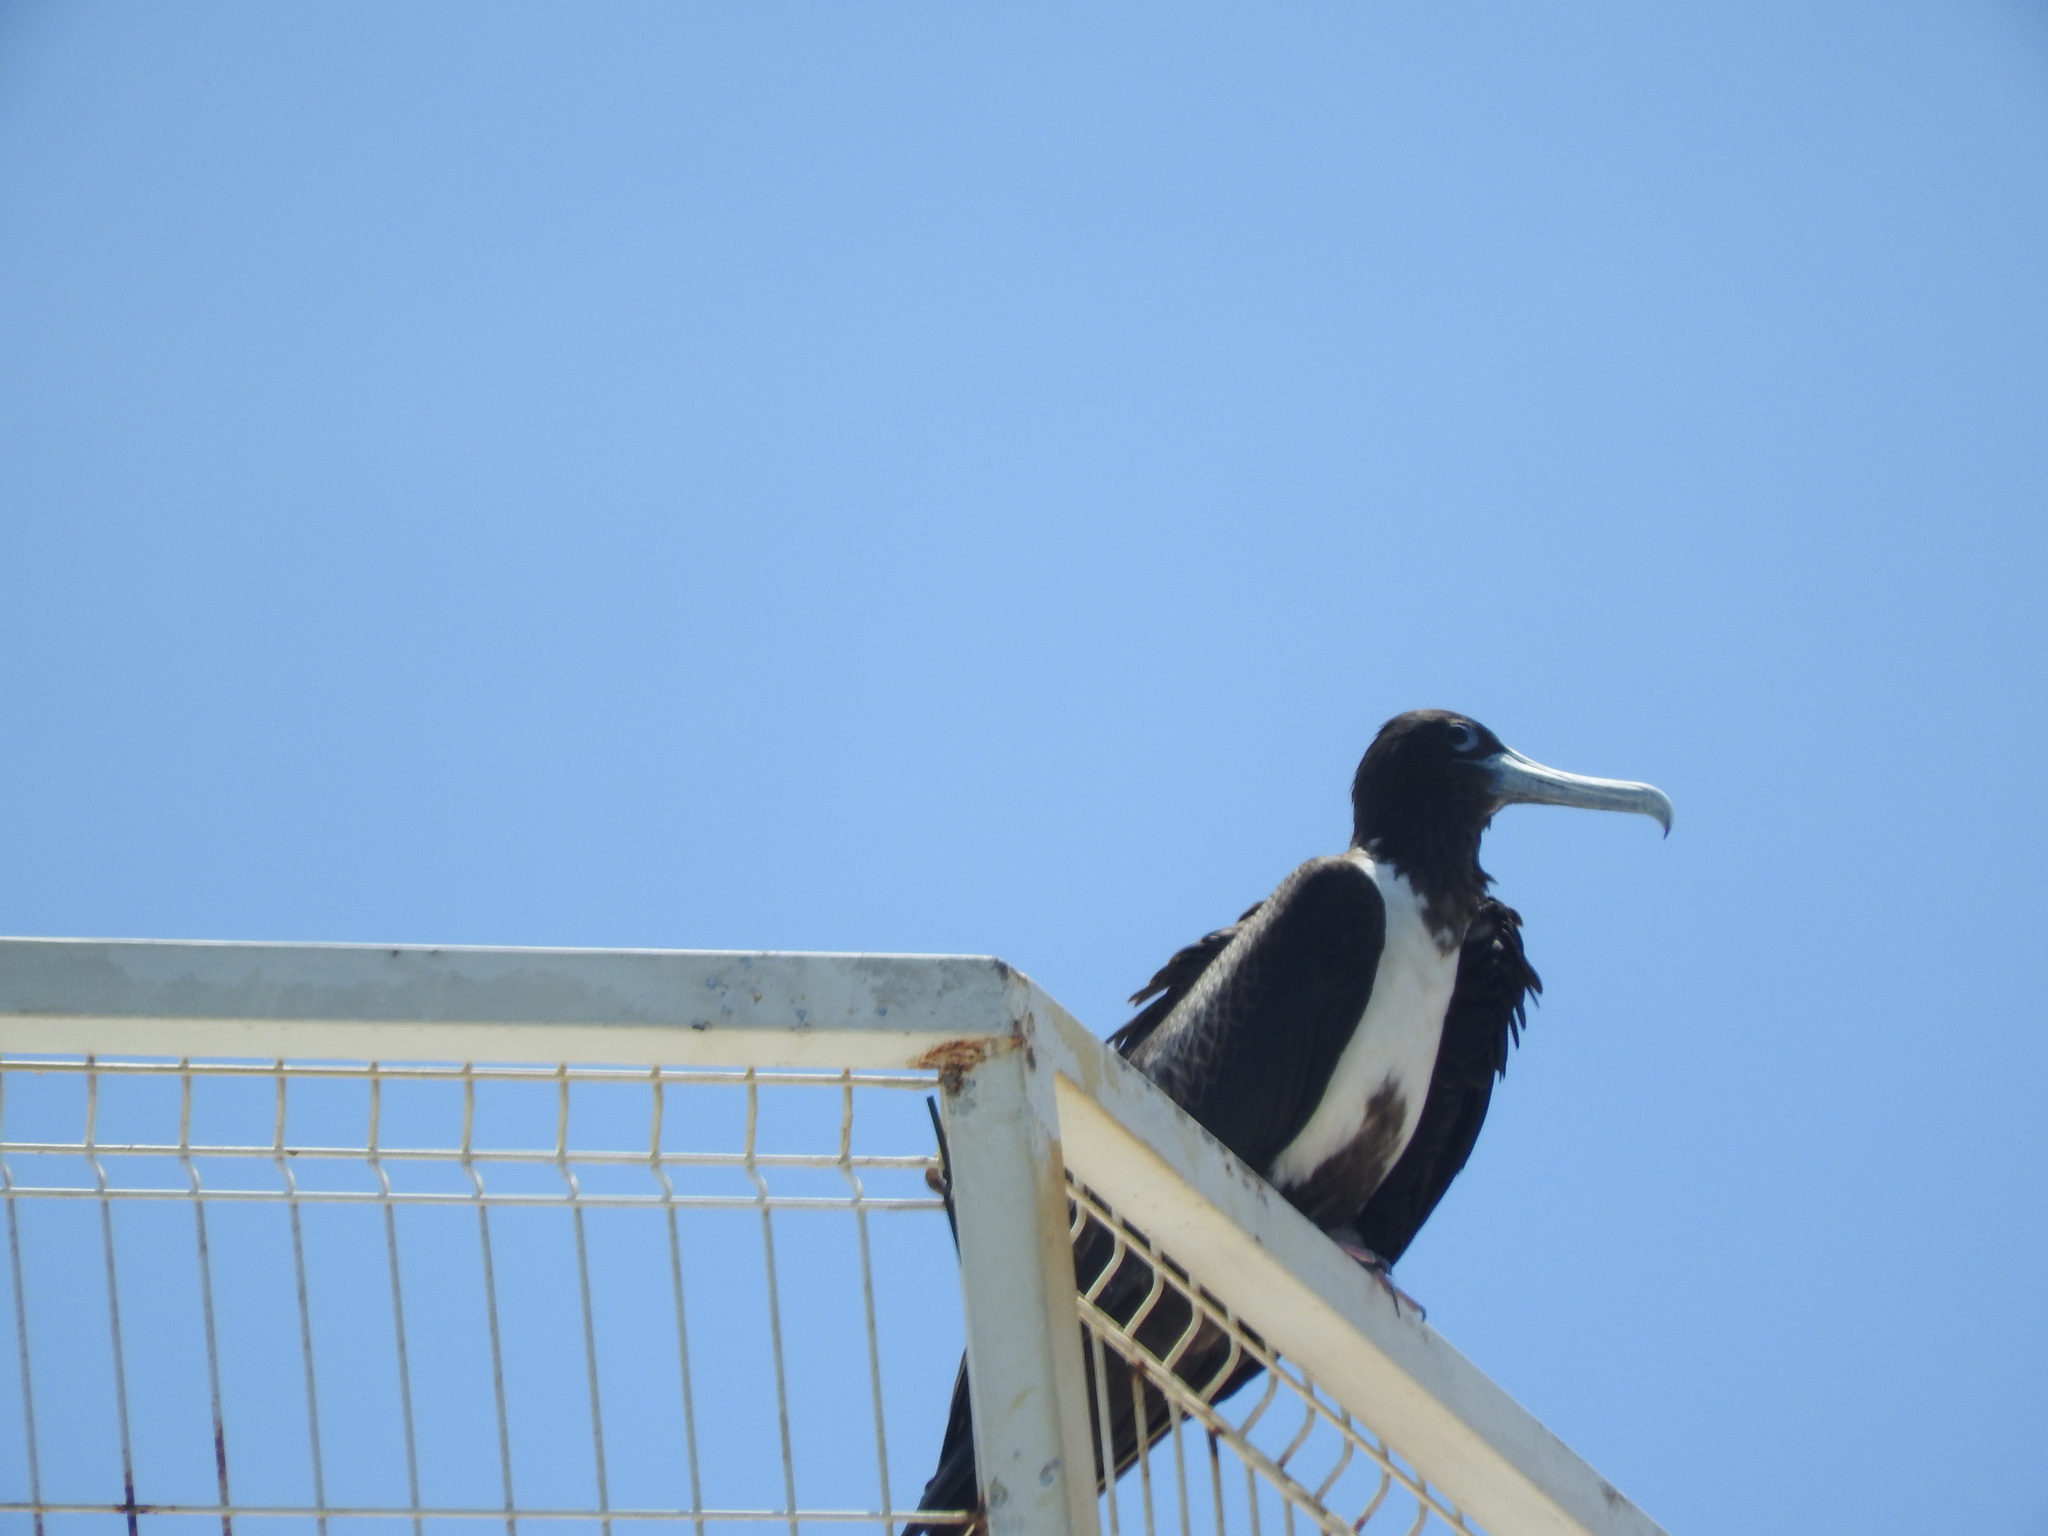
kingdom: Animalia
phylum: Chordata
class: Aves
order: Suliformes
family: Fregatidae
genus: Fregata
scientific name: Fregata magnificens
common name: Magnificent frigatebird
